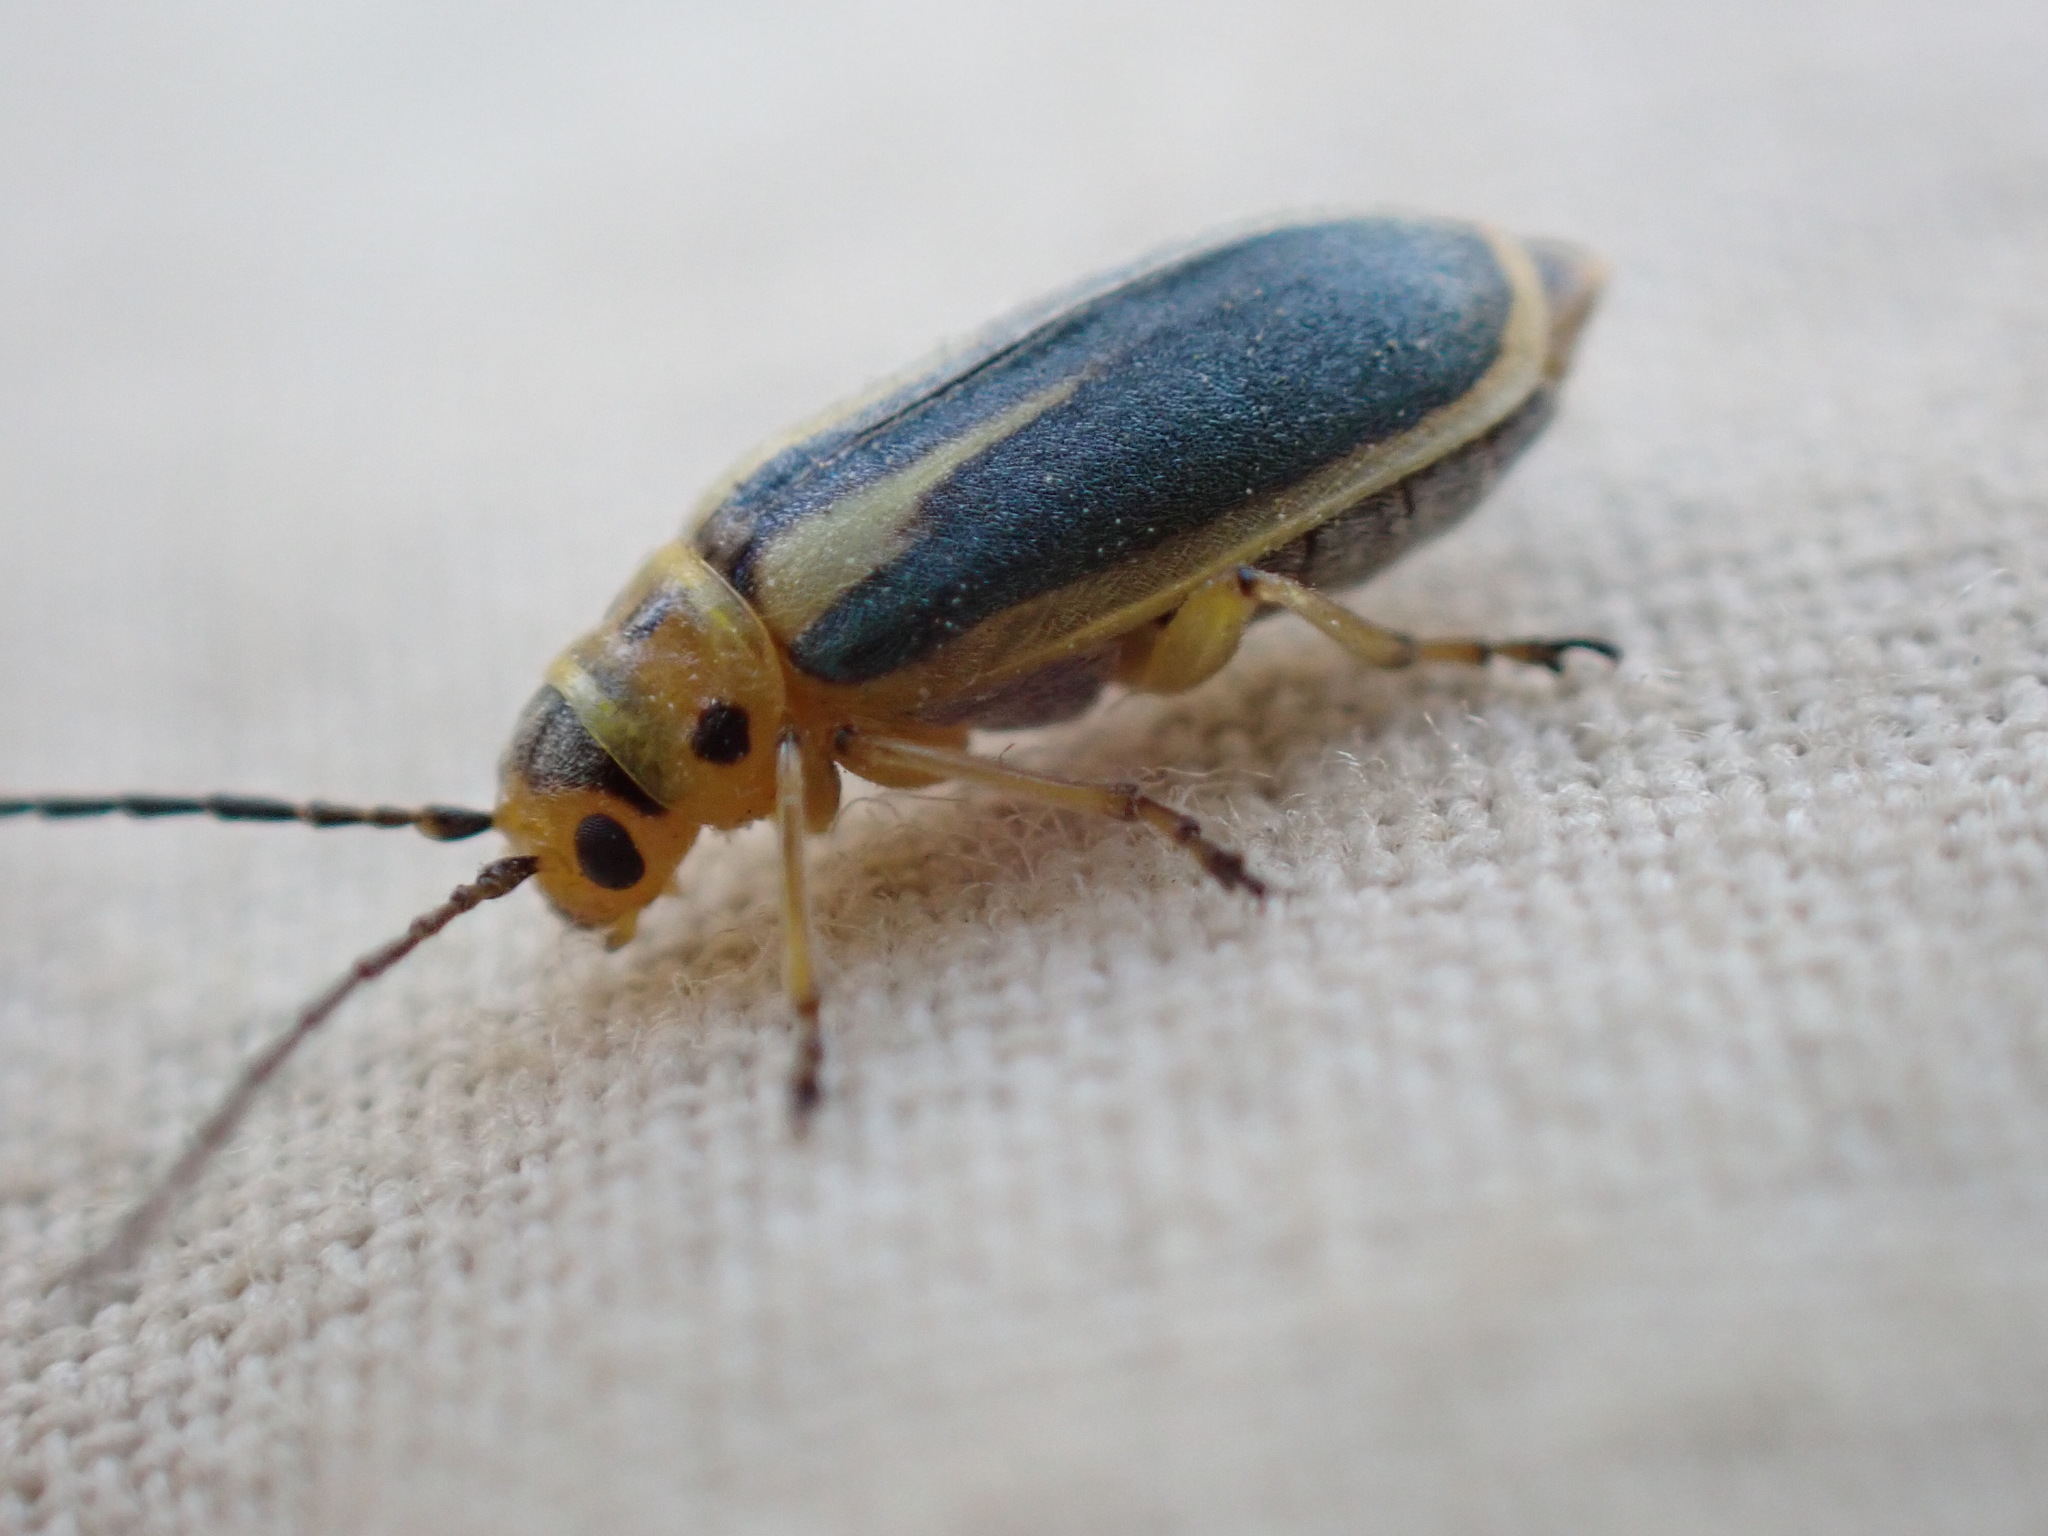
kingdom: Animalia
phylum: Arthropoda
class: Insecta
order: Coleoptera
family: Chrysomelidae
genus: Trirhabda
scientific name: Trirhabda attenuata
